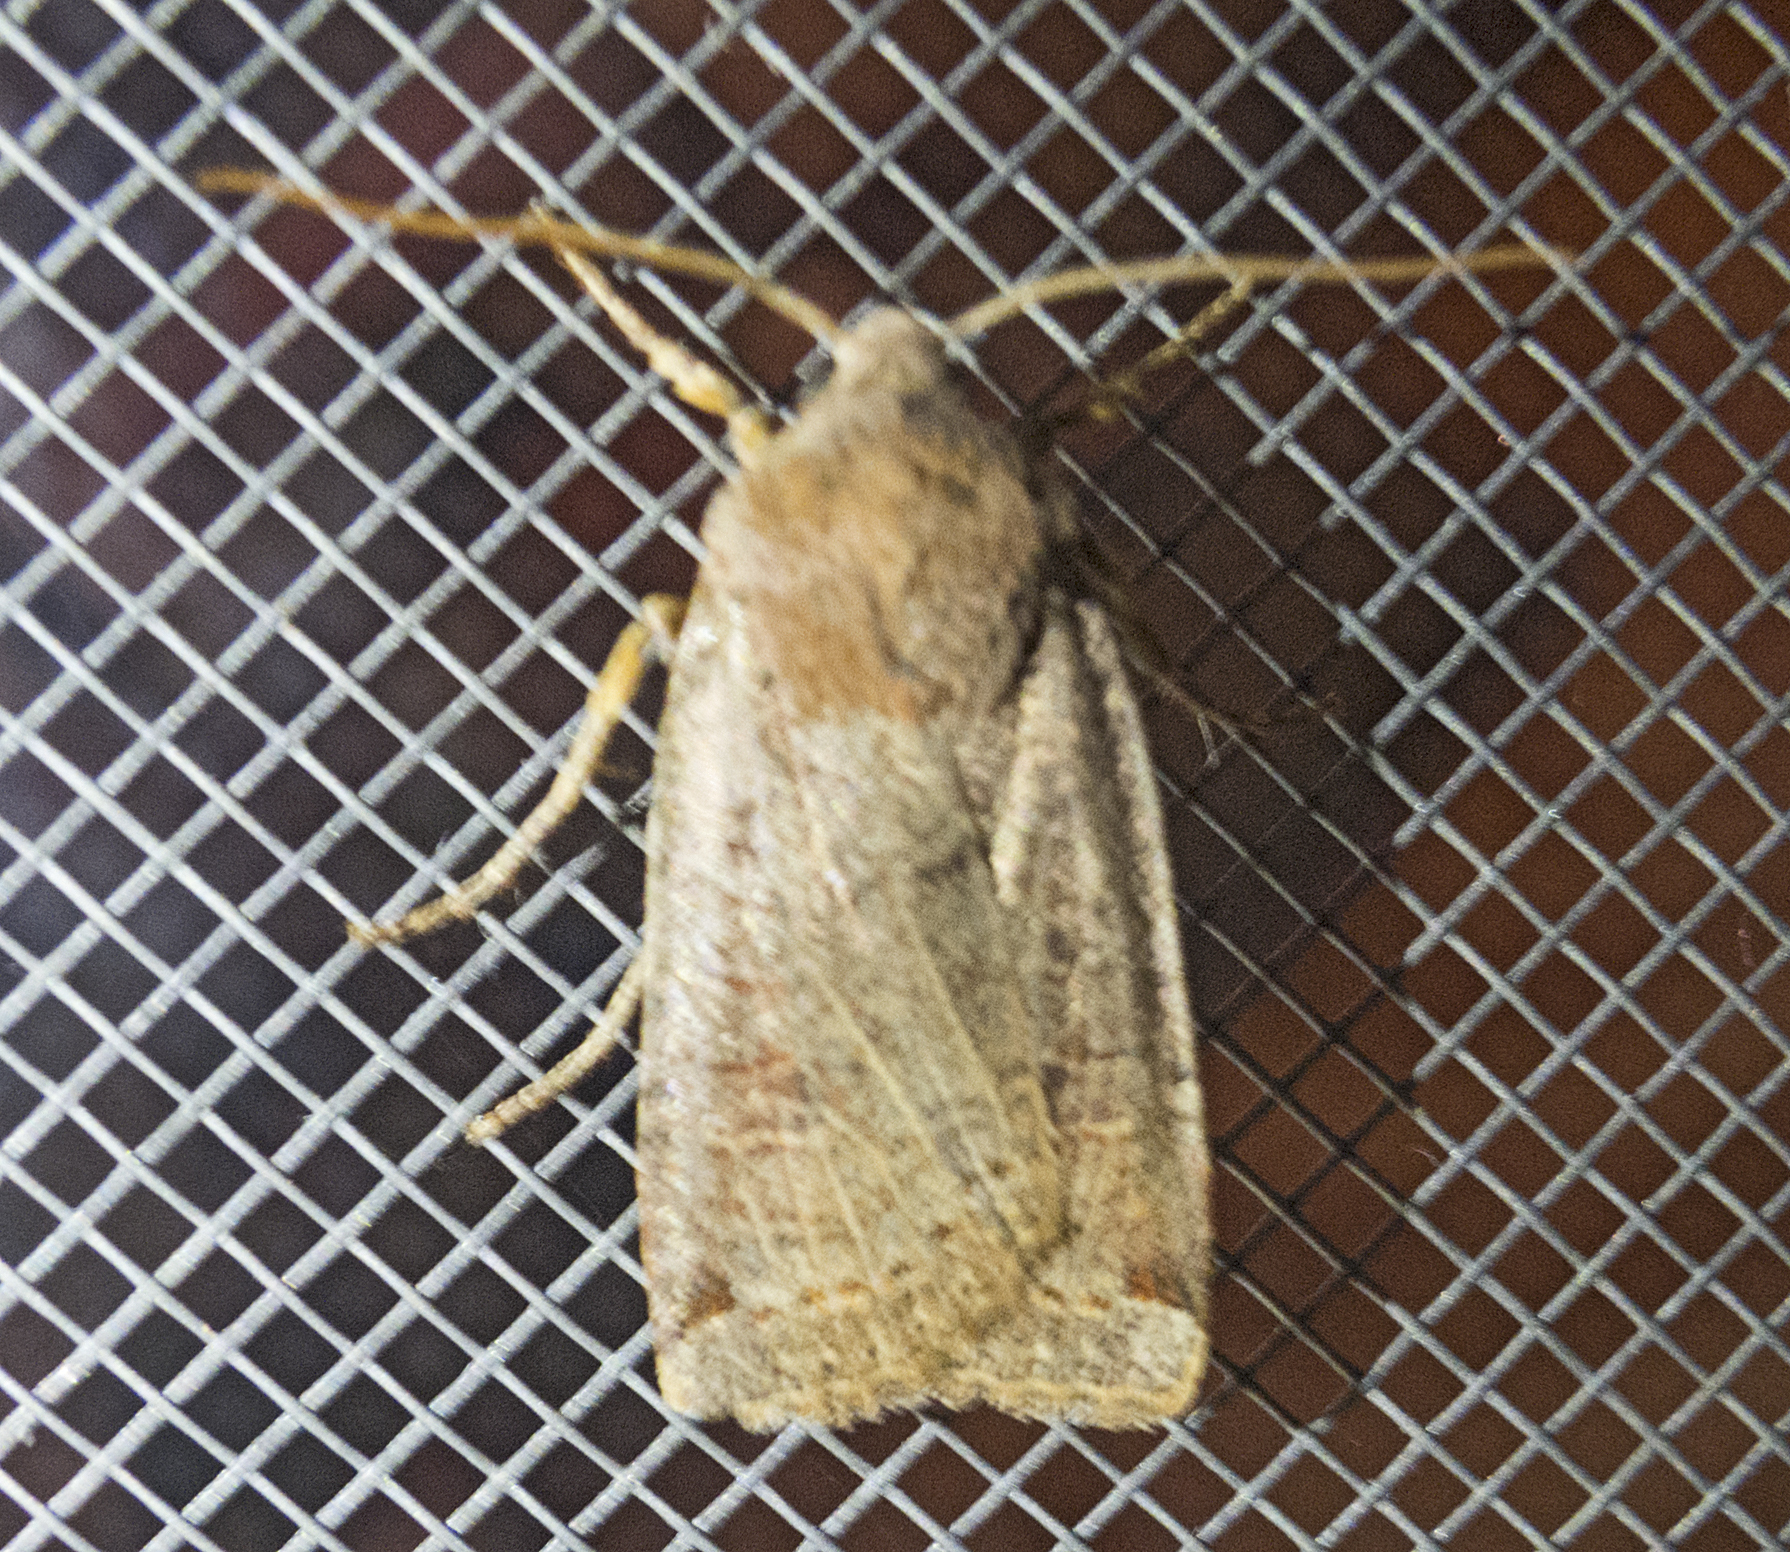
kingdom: Animalia
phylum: Arthropoda
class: Insecta
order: Lepidoptera
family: Noctuidae
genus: Conistra
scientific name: Conistra veronicae
